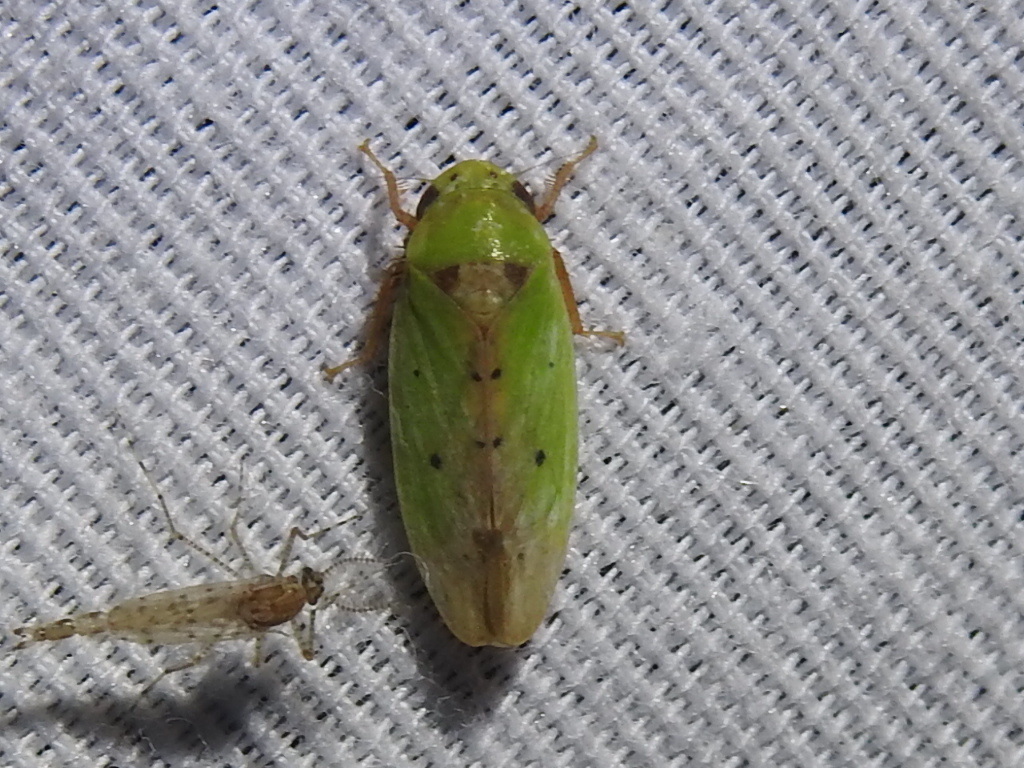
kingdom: Animalia
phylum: Arthropoda
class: Insecta
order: Hemiptera
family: Cicadellidae
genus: Ponana
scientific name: Ponana
